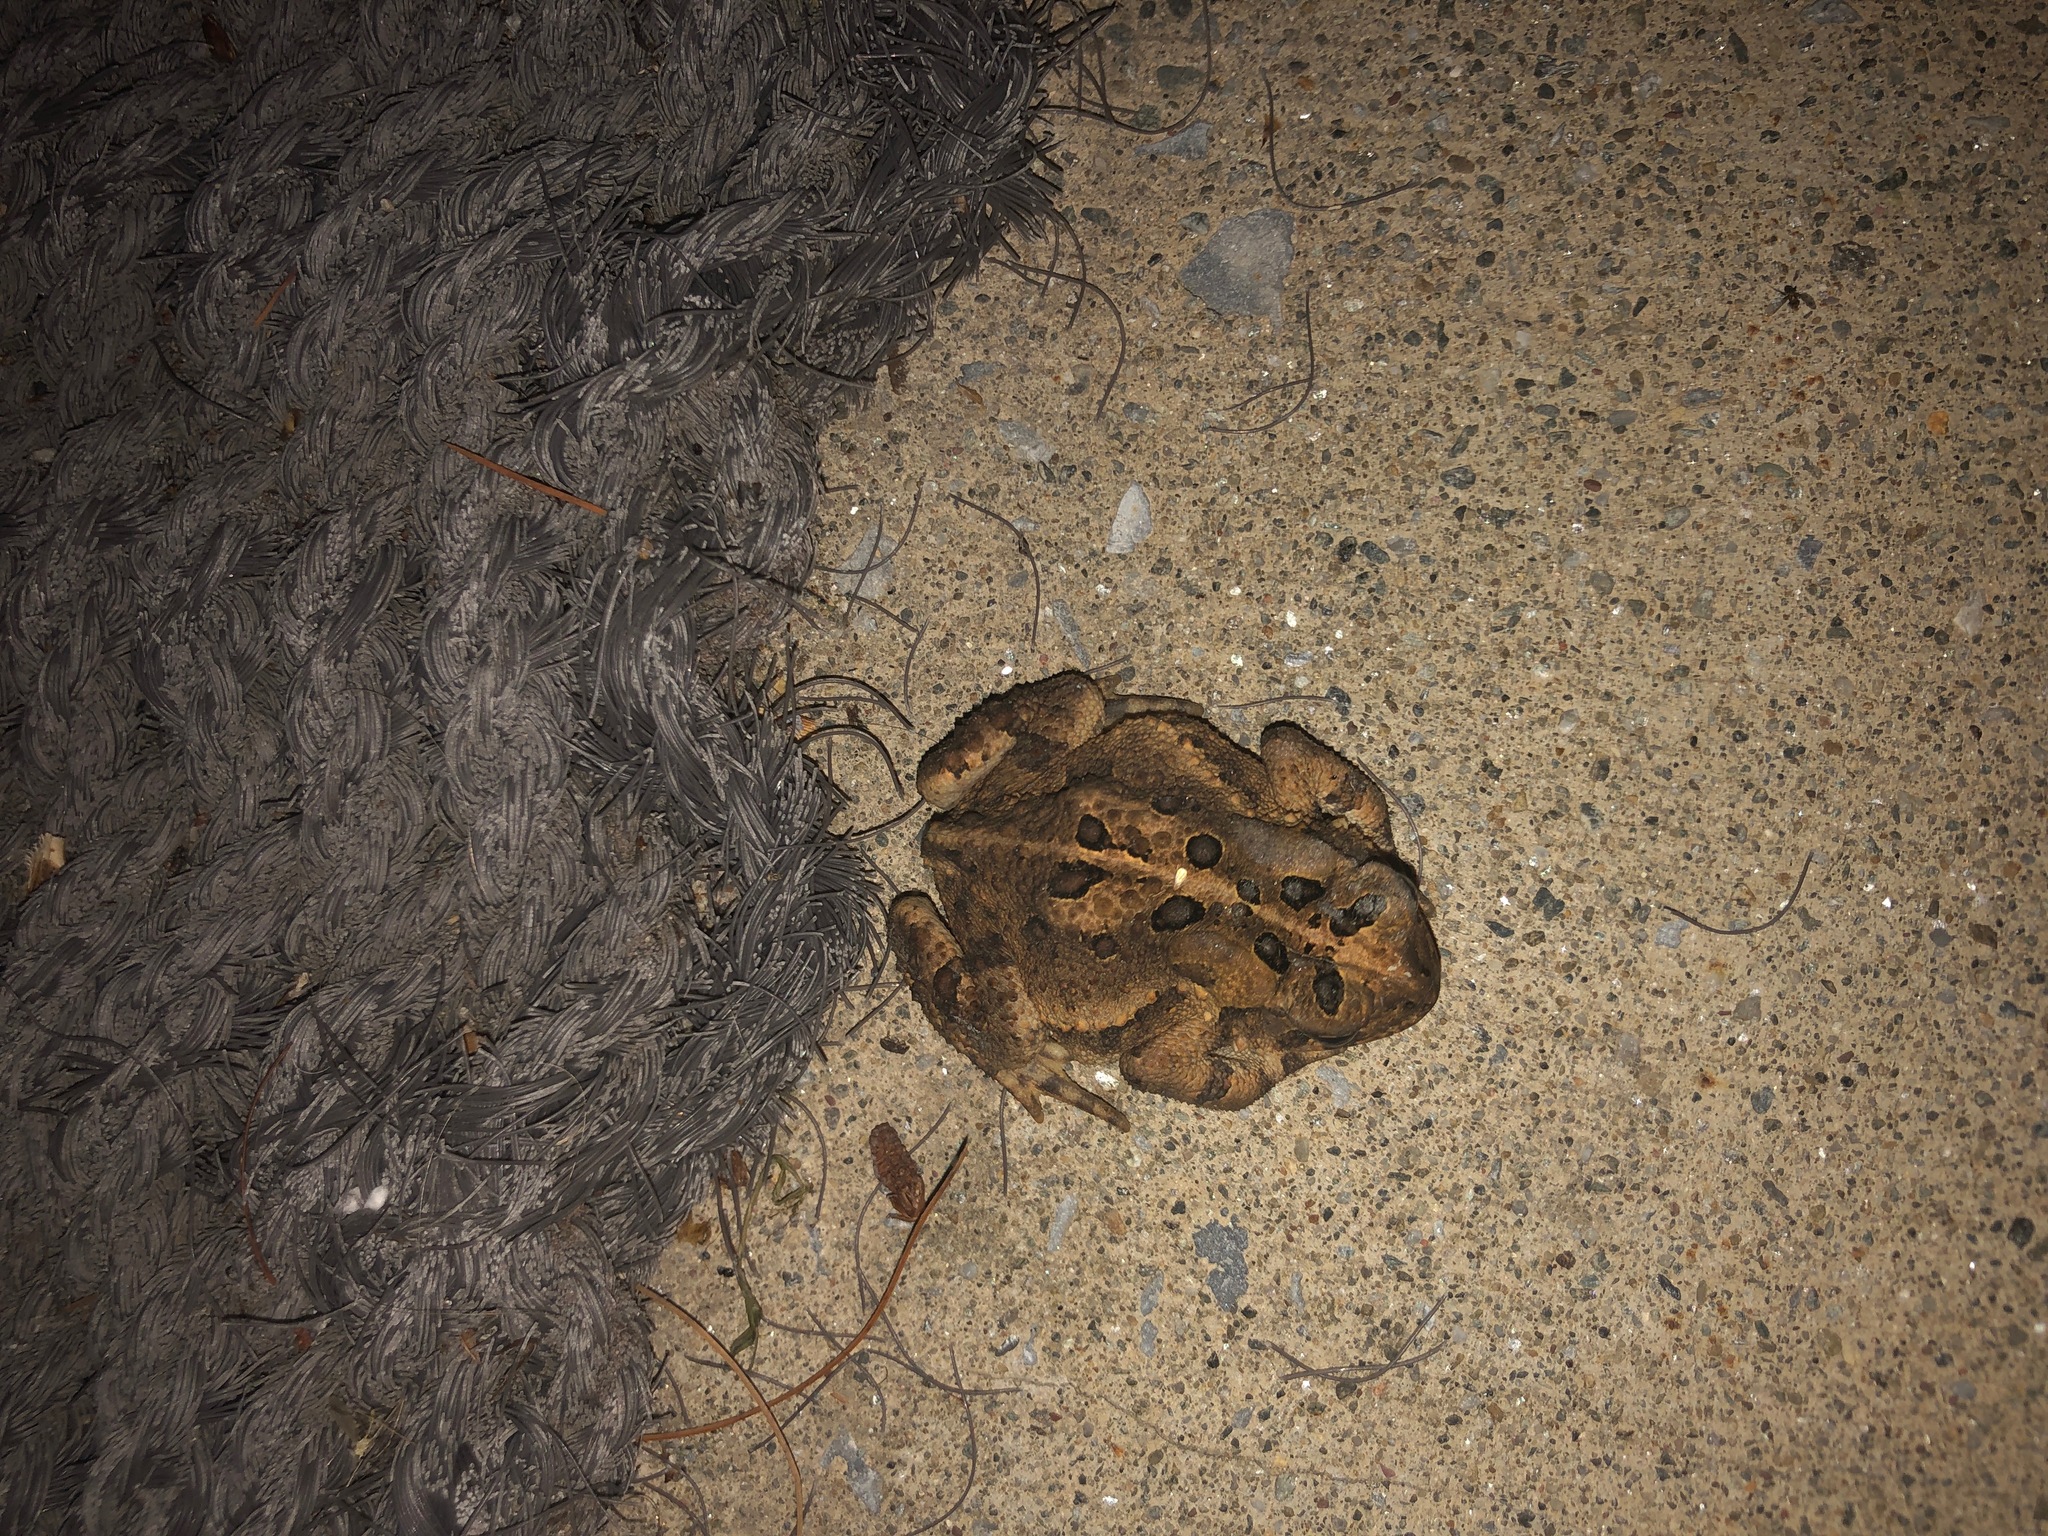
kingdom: Animalia
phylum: Chordata
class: Amphibia
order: Anura
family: Bufonidae
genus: Anaxyrus
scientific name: Anaxyrus americanus
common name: American toad
